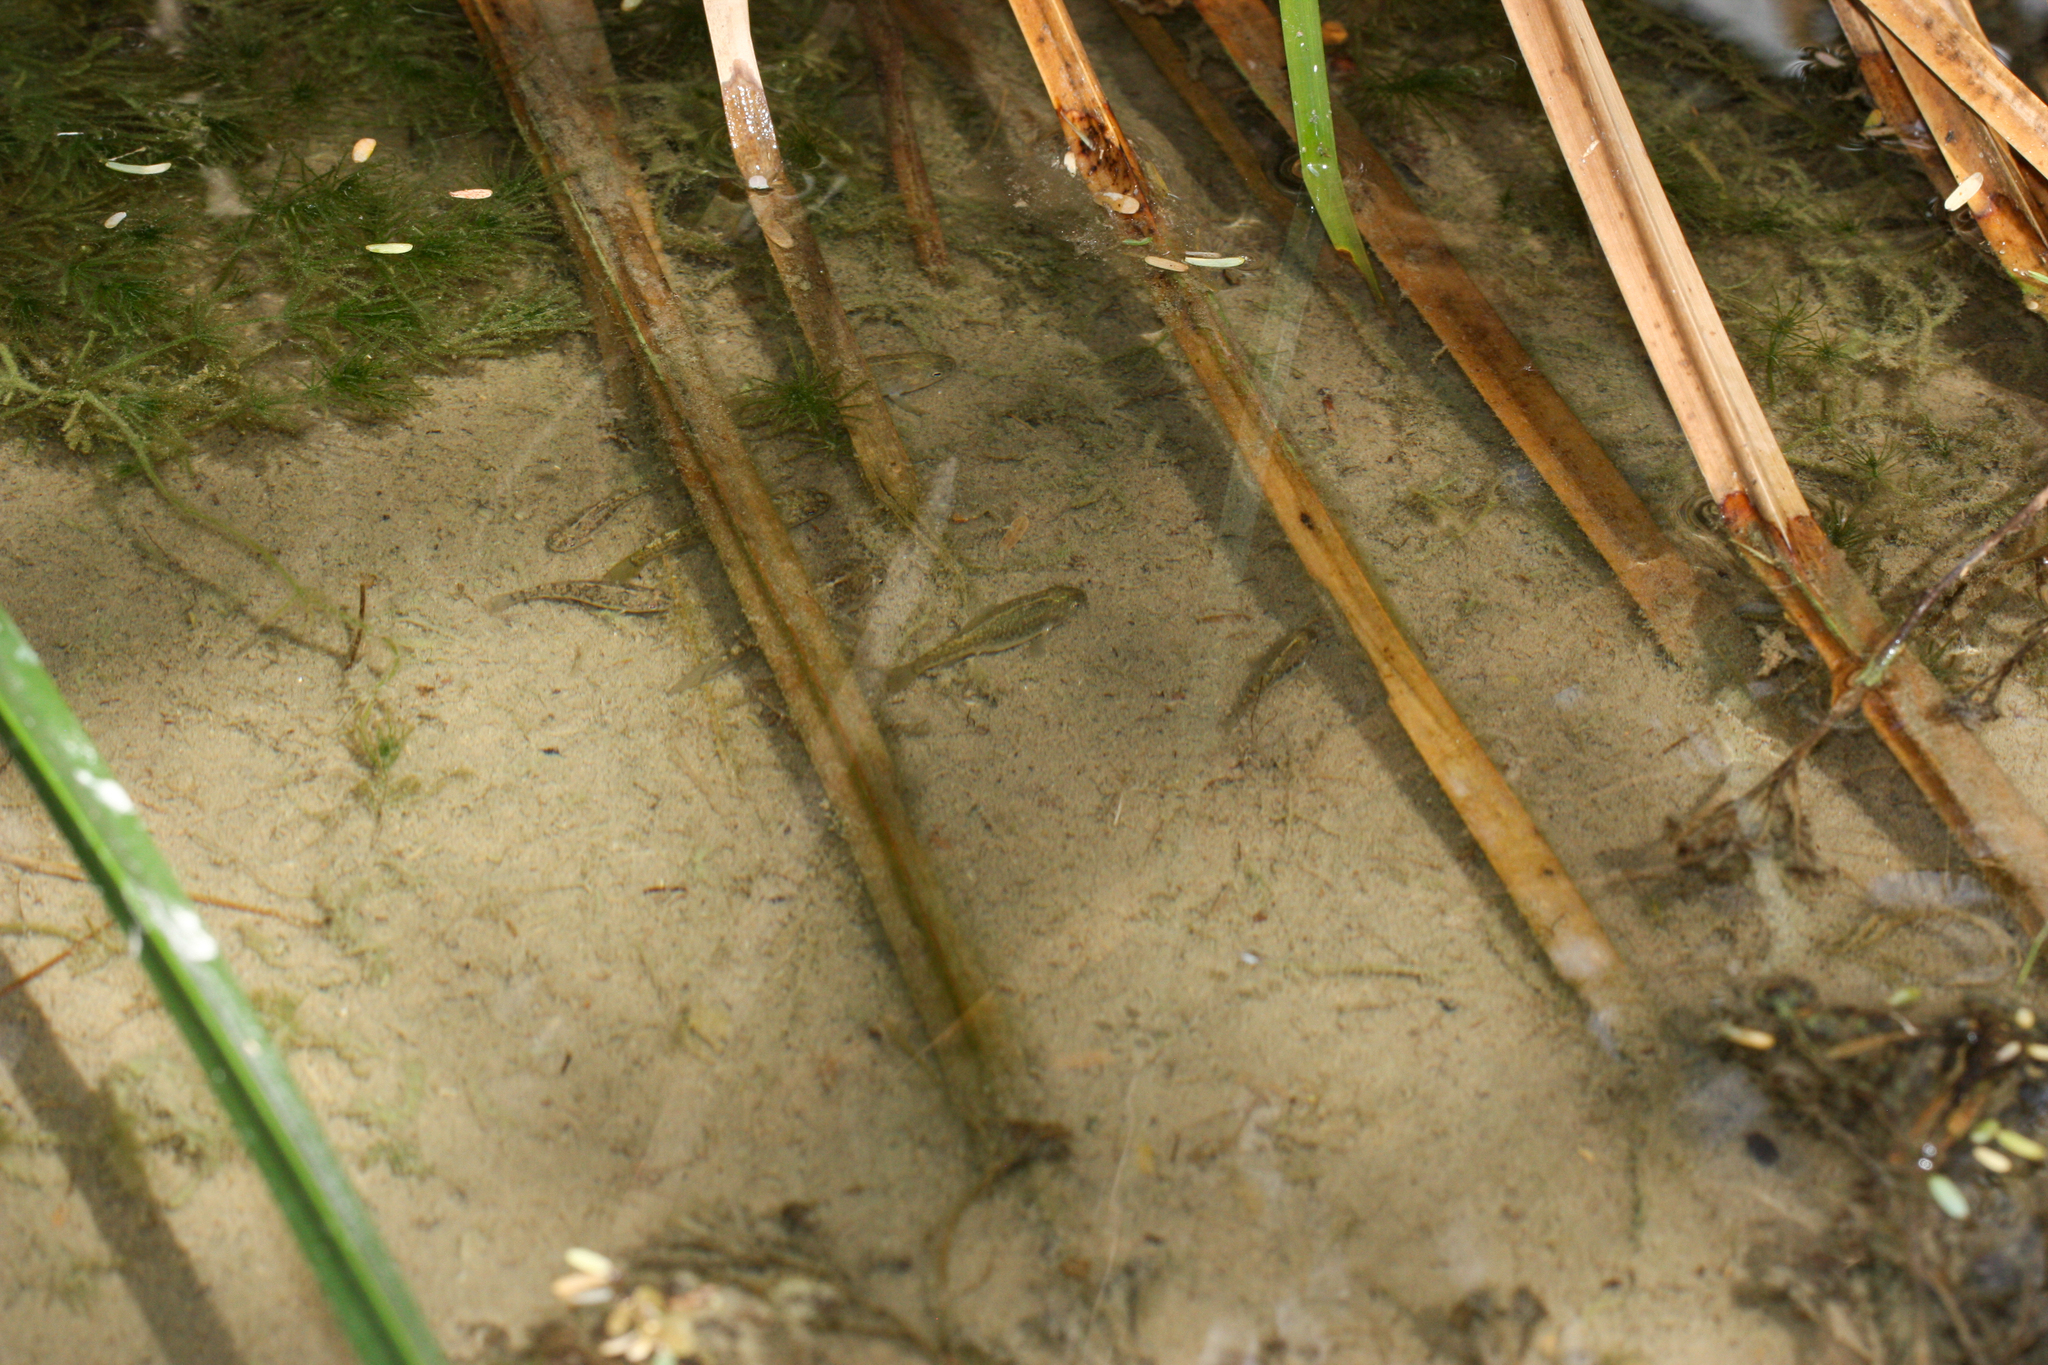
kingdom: Animalia
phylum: Chordata
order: Cyprinodontiformes
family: Cyprinodontidae
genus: Cyprinodon
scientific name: Cyprinodon eremus
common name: Sonoyta pupfish
